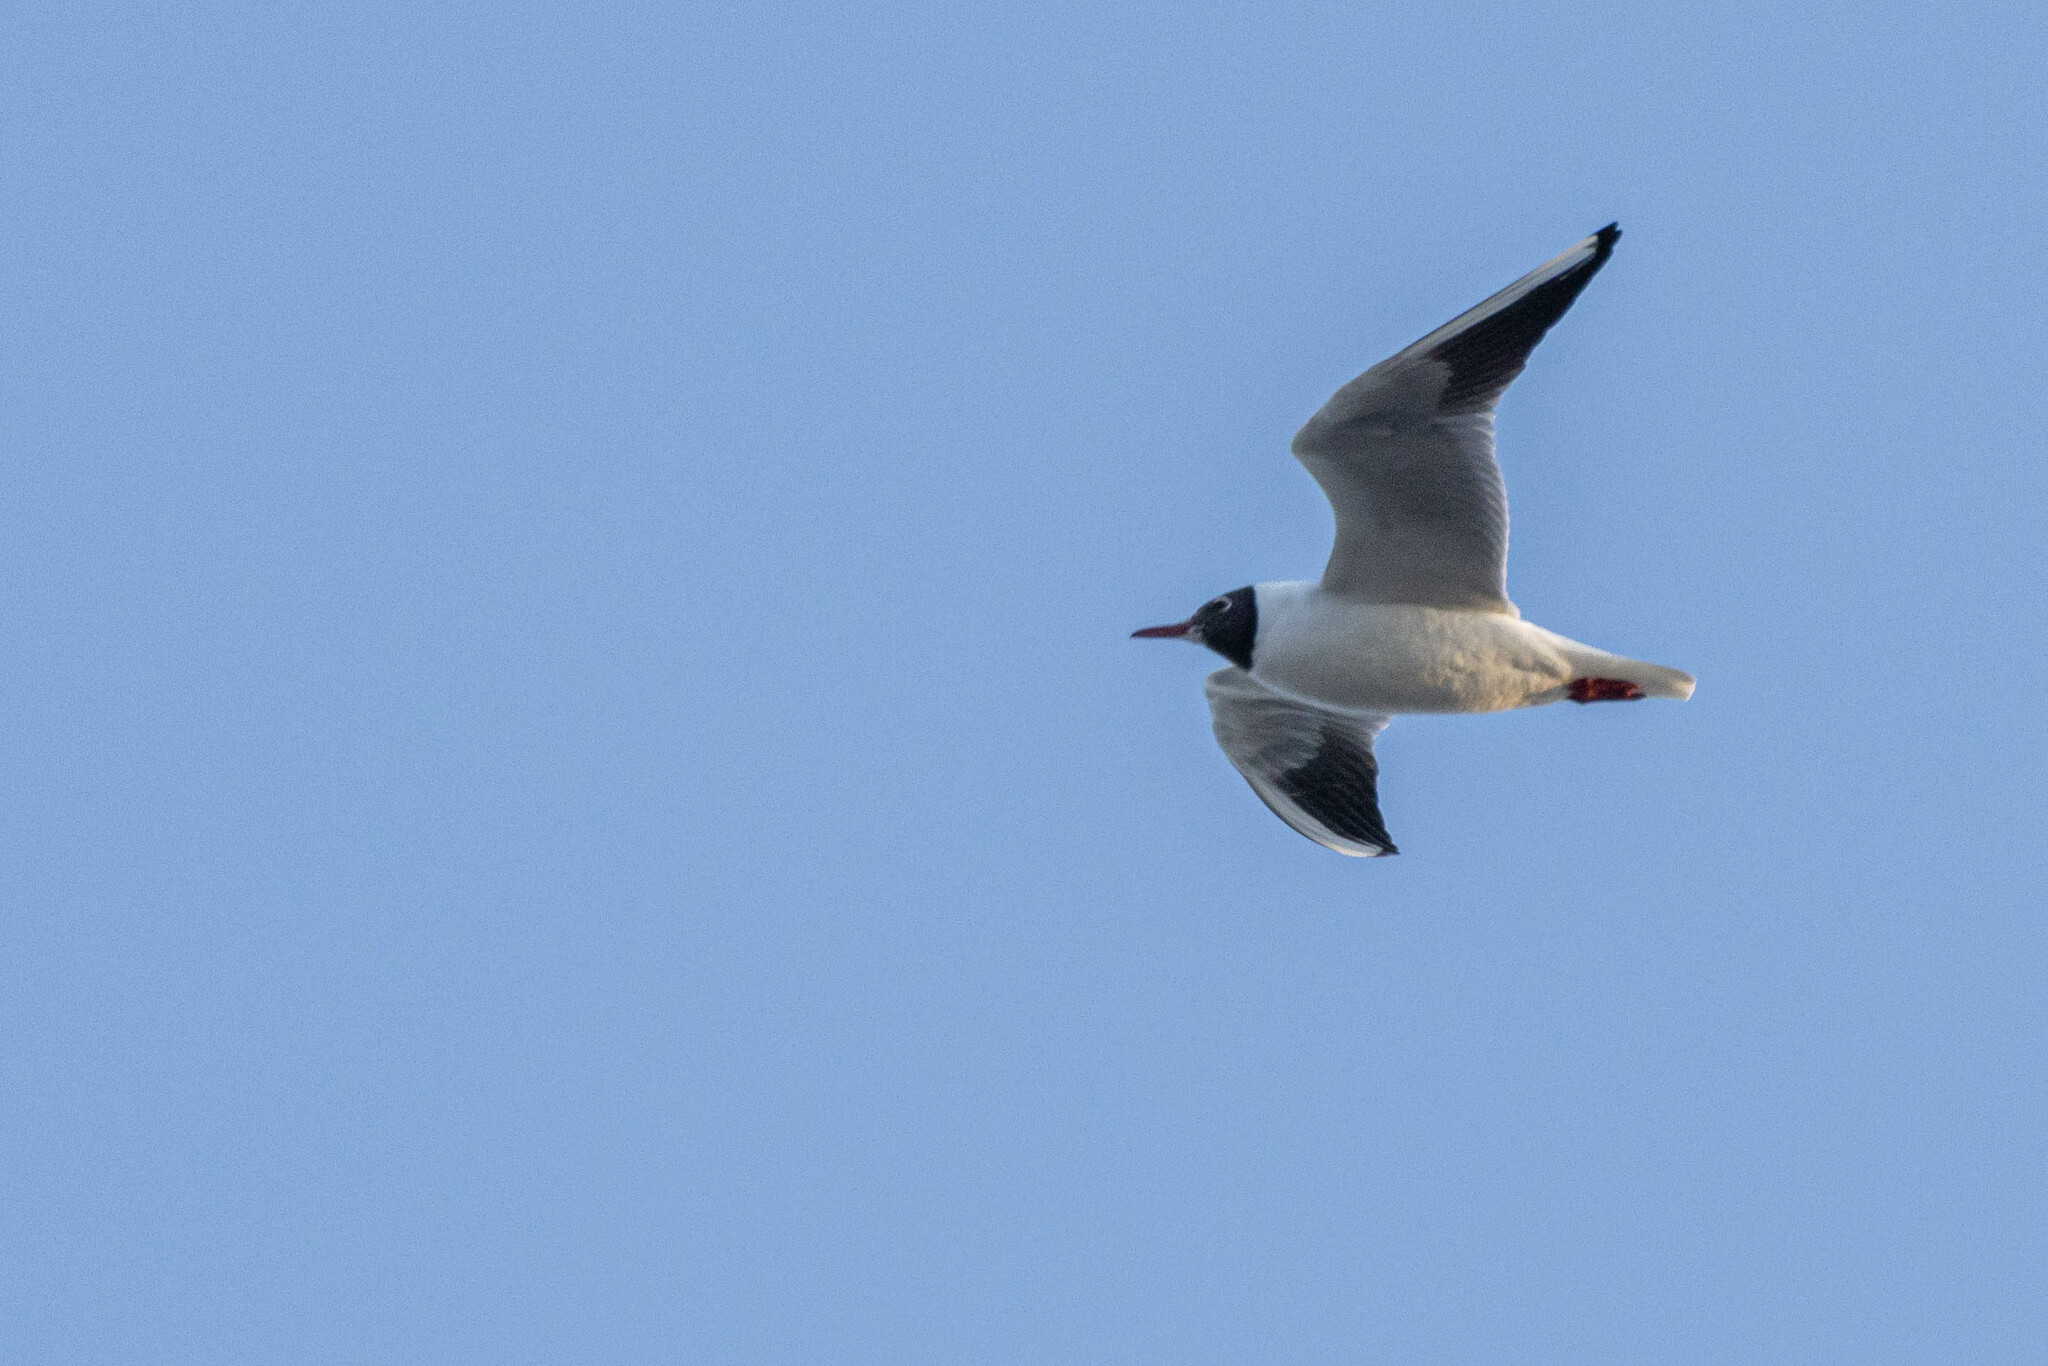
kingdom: Animalia
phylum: Chordata
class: Aves
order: Charadriiformes
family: Laridae
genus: Chroicocephalus
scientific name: Chroicocephalus ridibundus
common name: Black-headed gull
